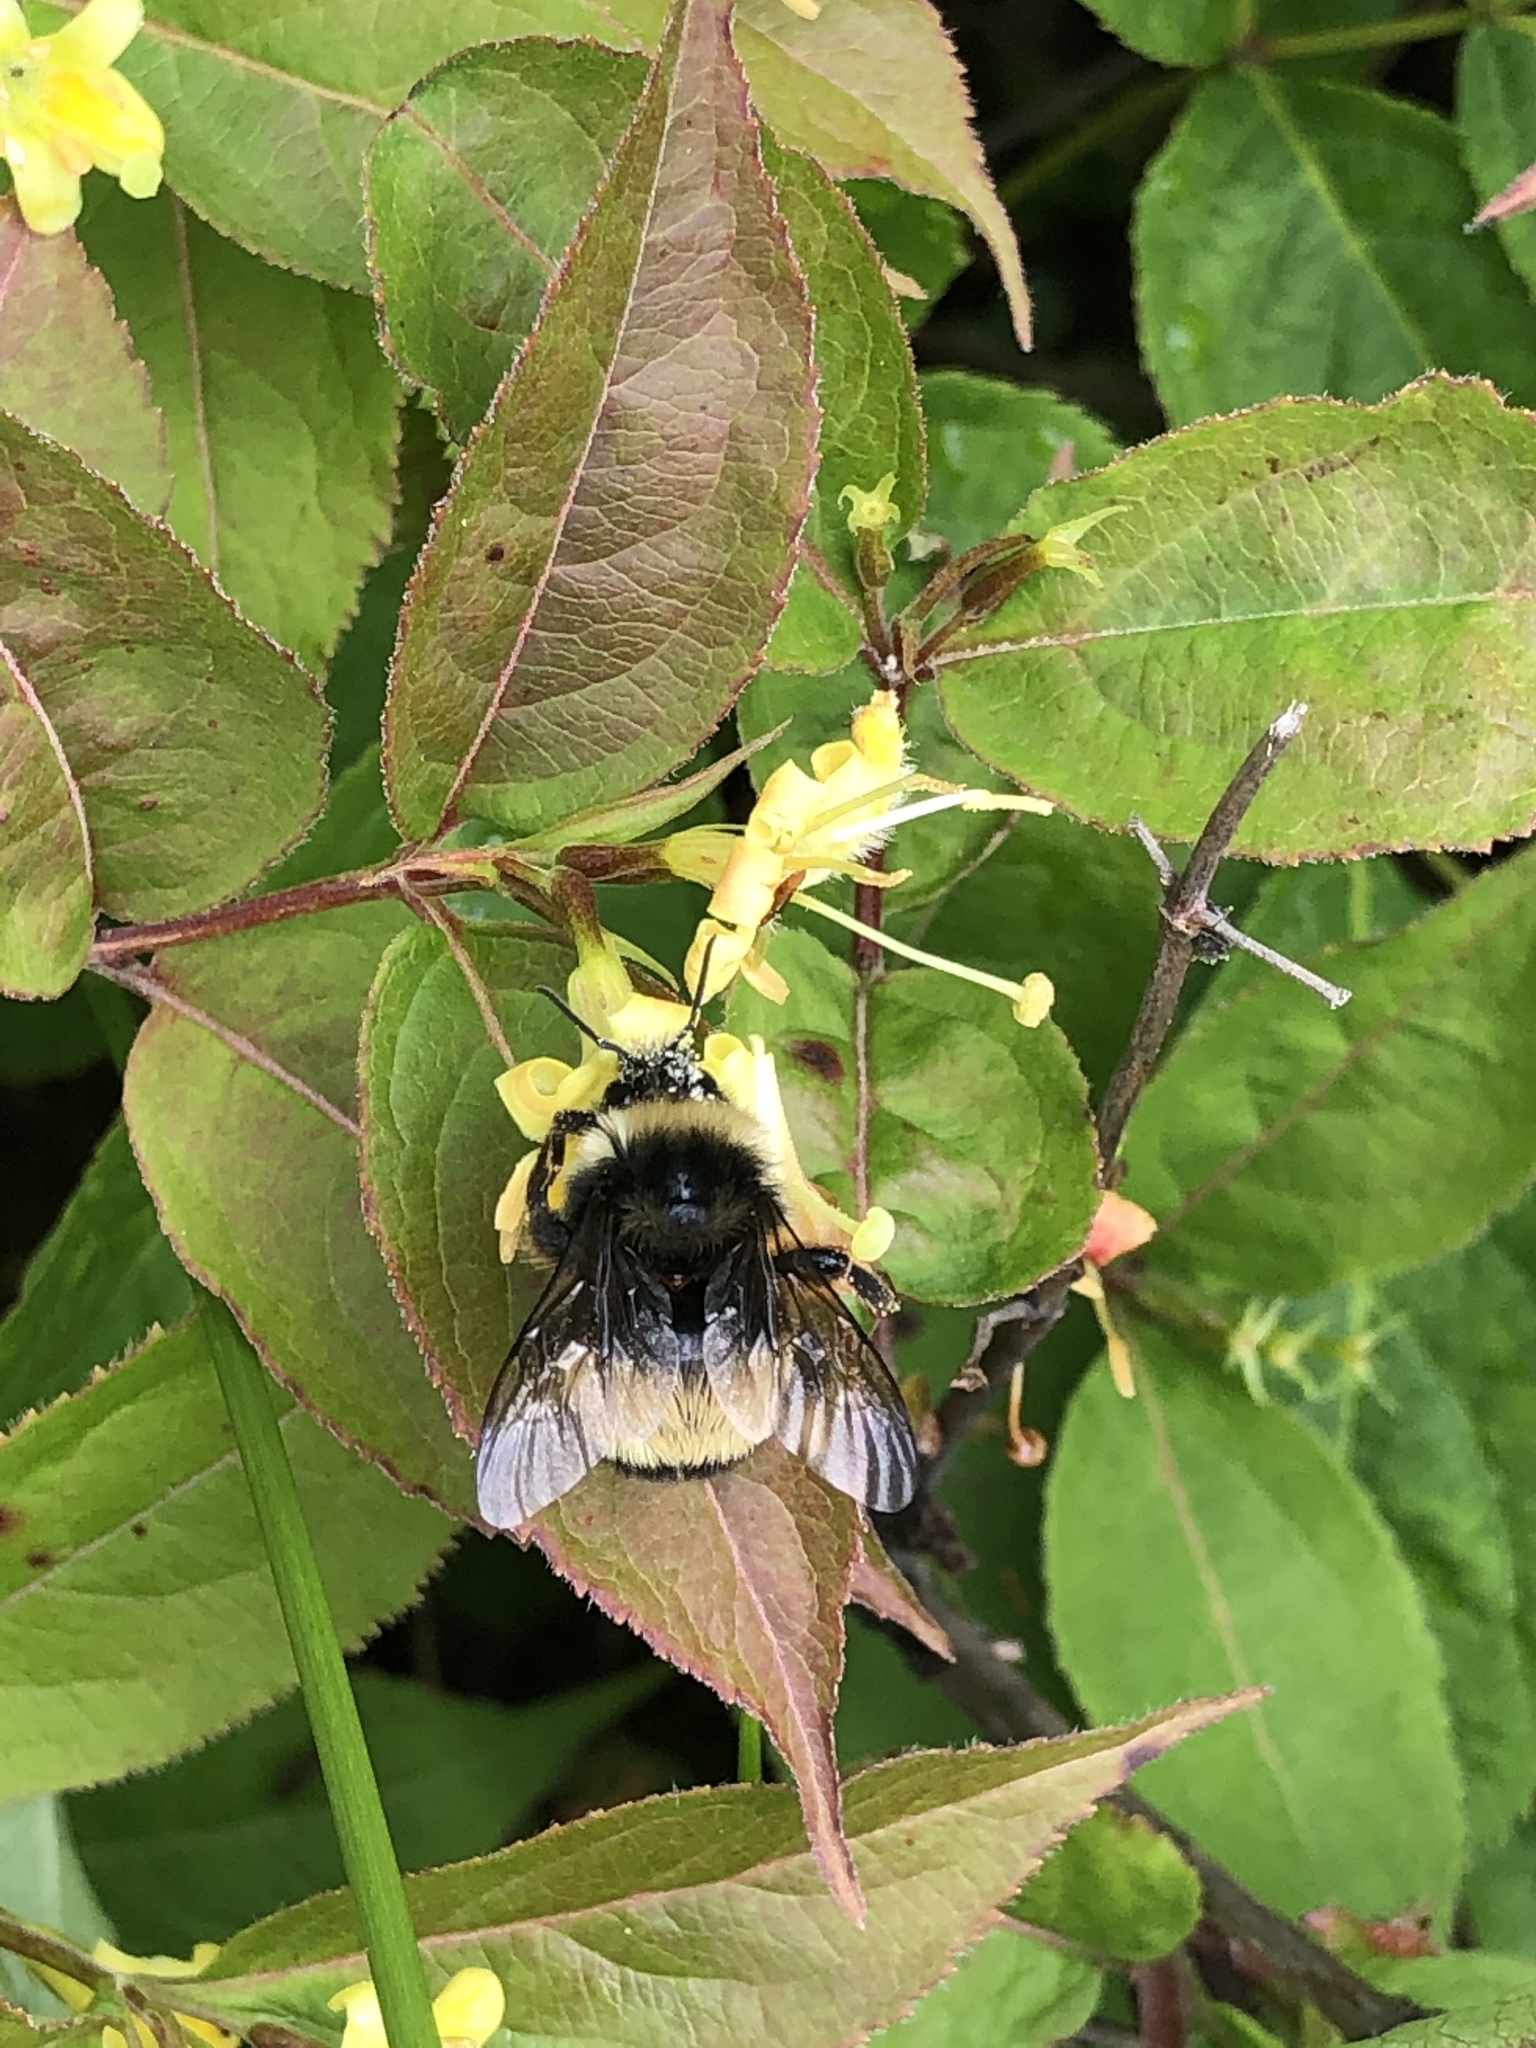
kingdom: Animalia
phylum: Arthropoda
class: Insecta
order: Hymenoptera
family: Apidae
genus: Bombus
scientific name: Bombus terricola
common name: Yellow-banded bumble bee
